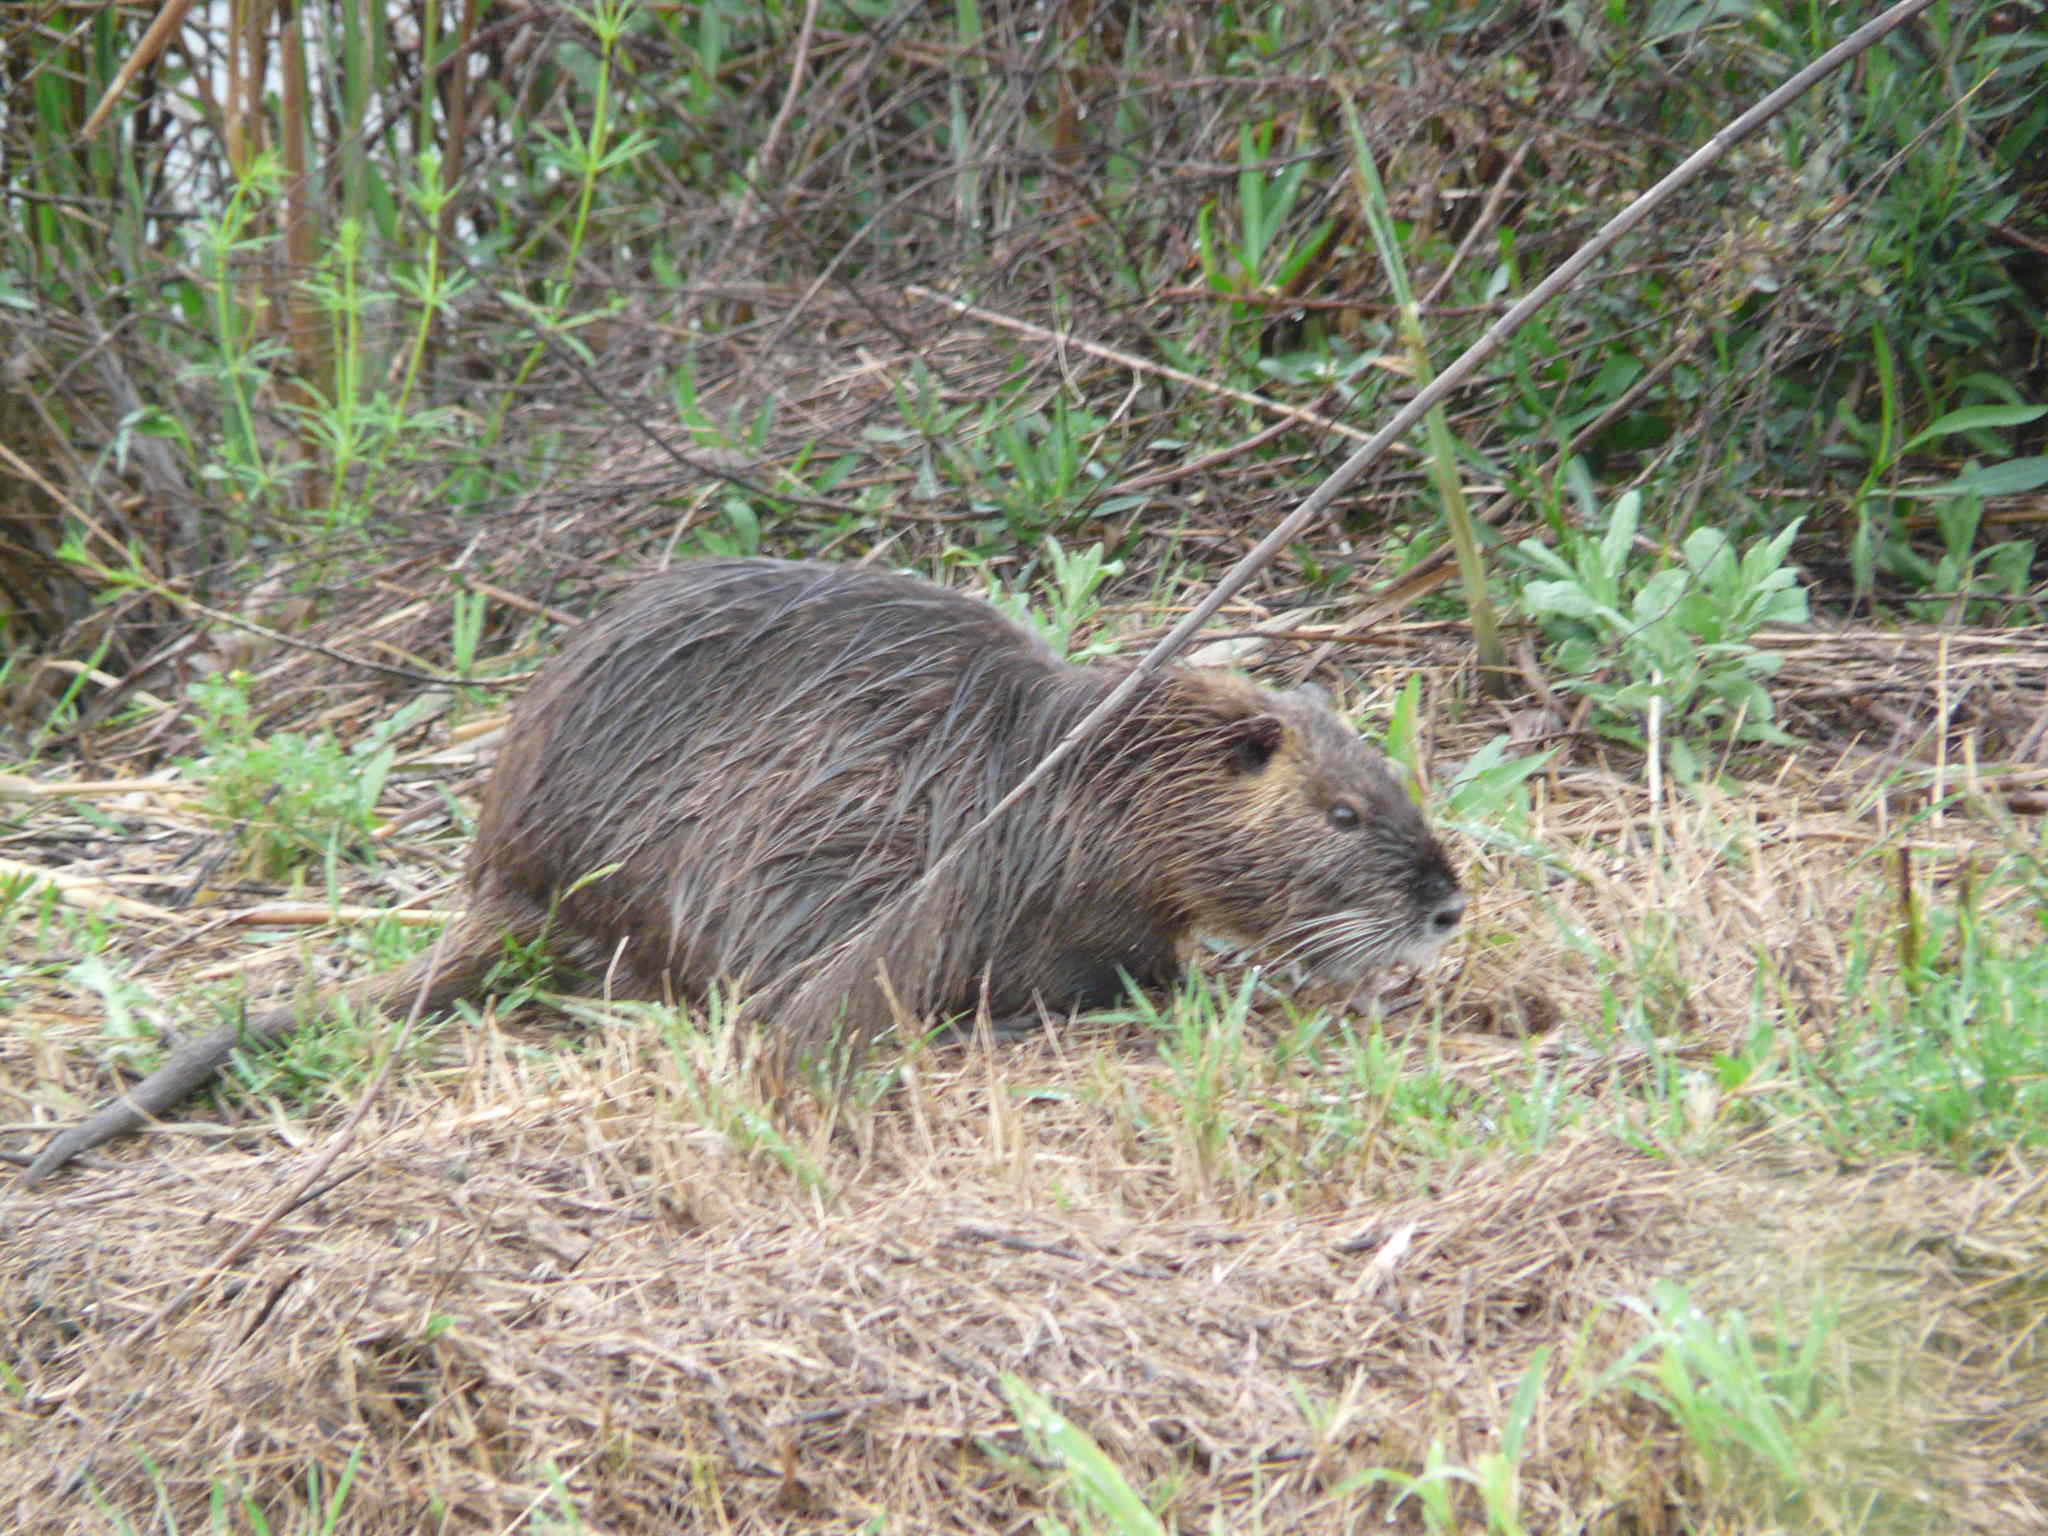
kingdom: Animalia
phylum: Chordata
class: Mammalia
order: Rodentia
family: Myocastoridae
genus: Myocastor
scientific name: Myocastor coypus
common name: Coypu
